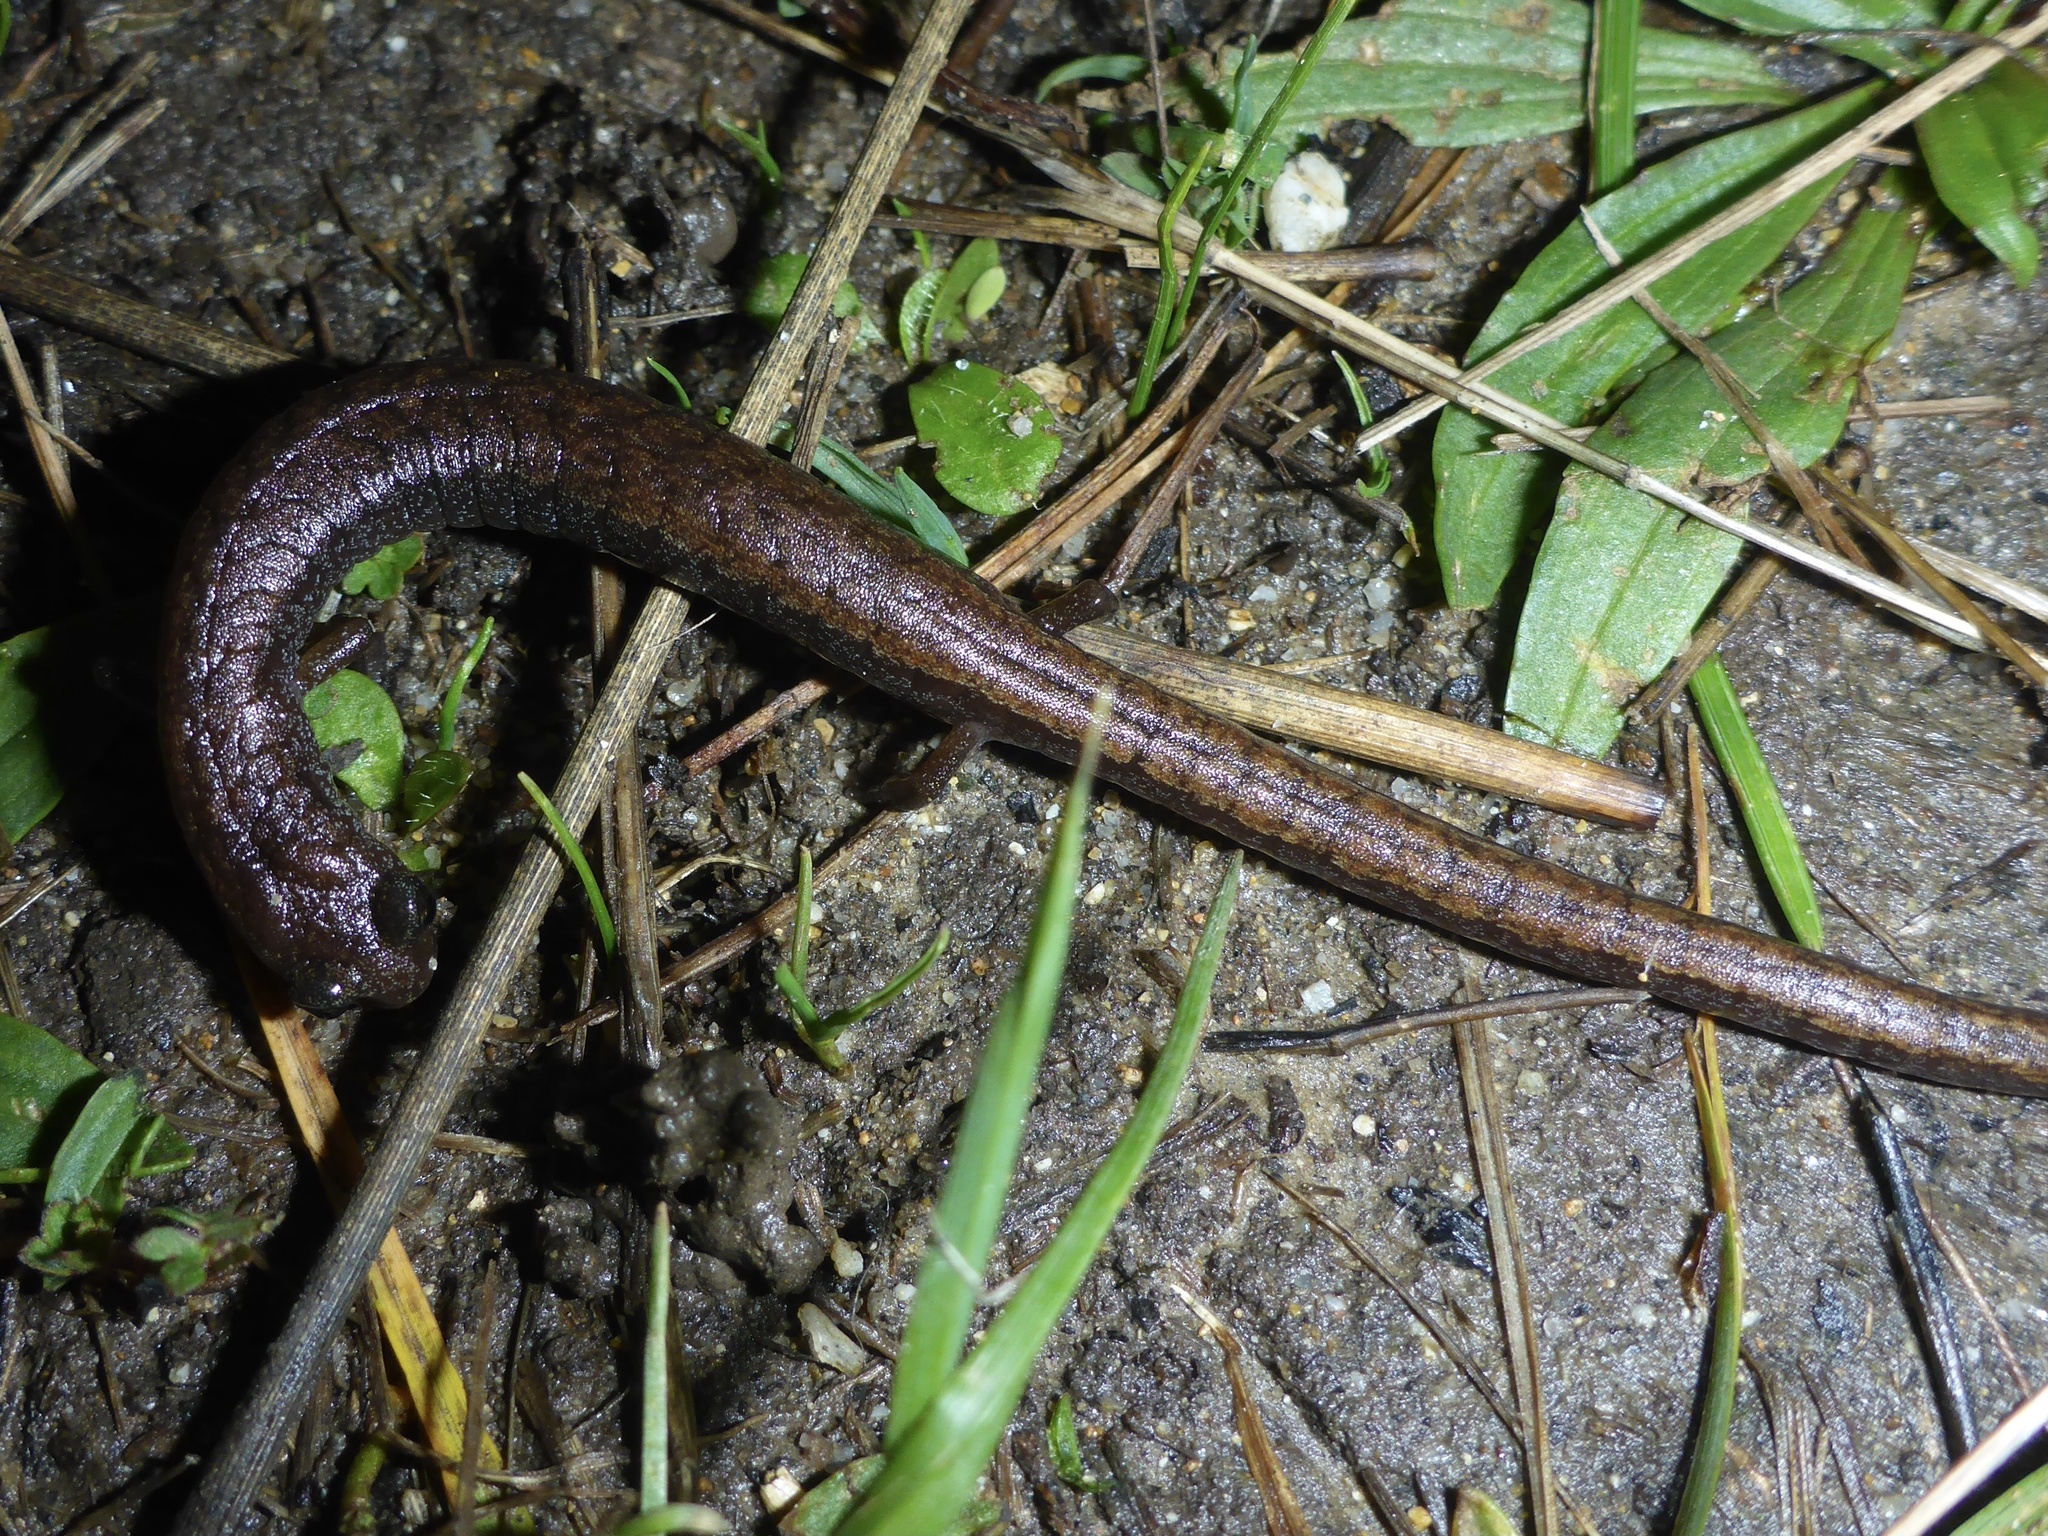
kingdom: Animalia
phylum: Chordata
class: Amphibia
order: Caudata
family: Plethodontidae
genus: Batrachoseps
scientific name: Batrachoseps attenuatus
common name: California slender salamander
